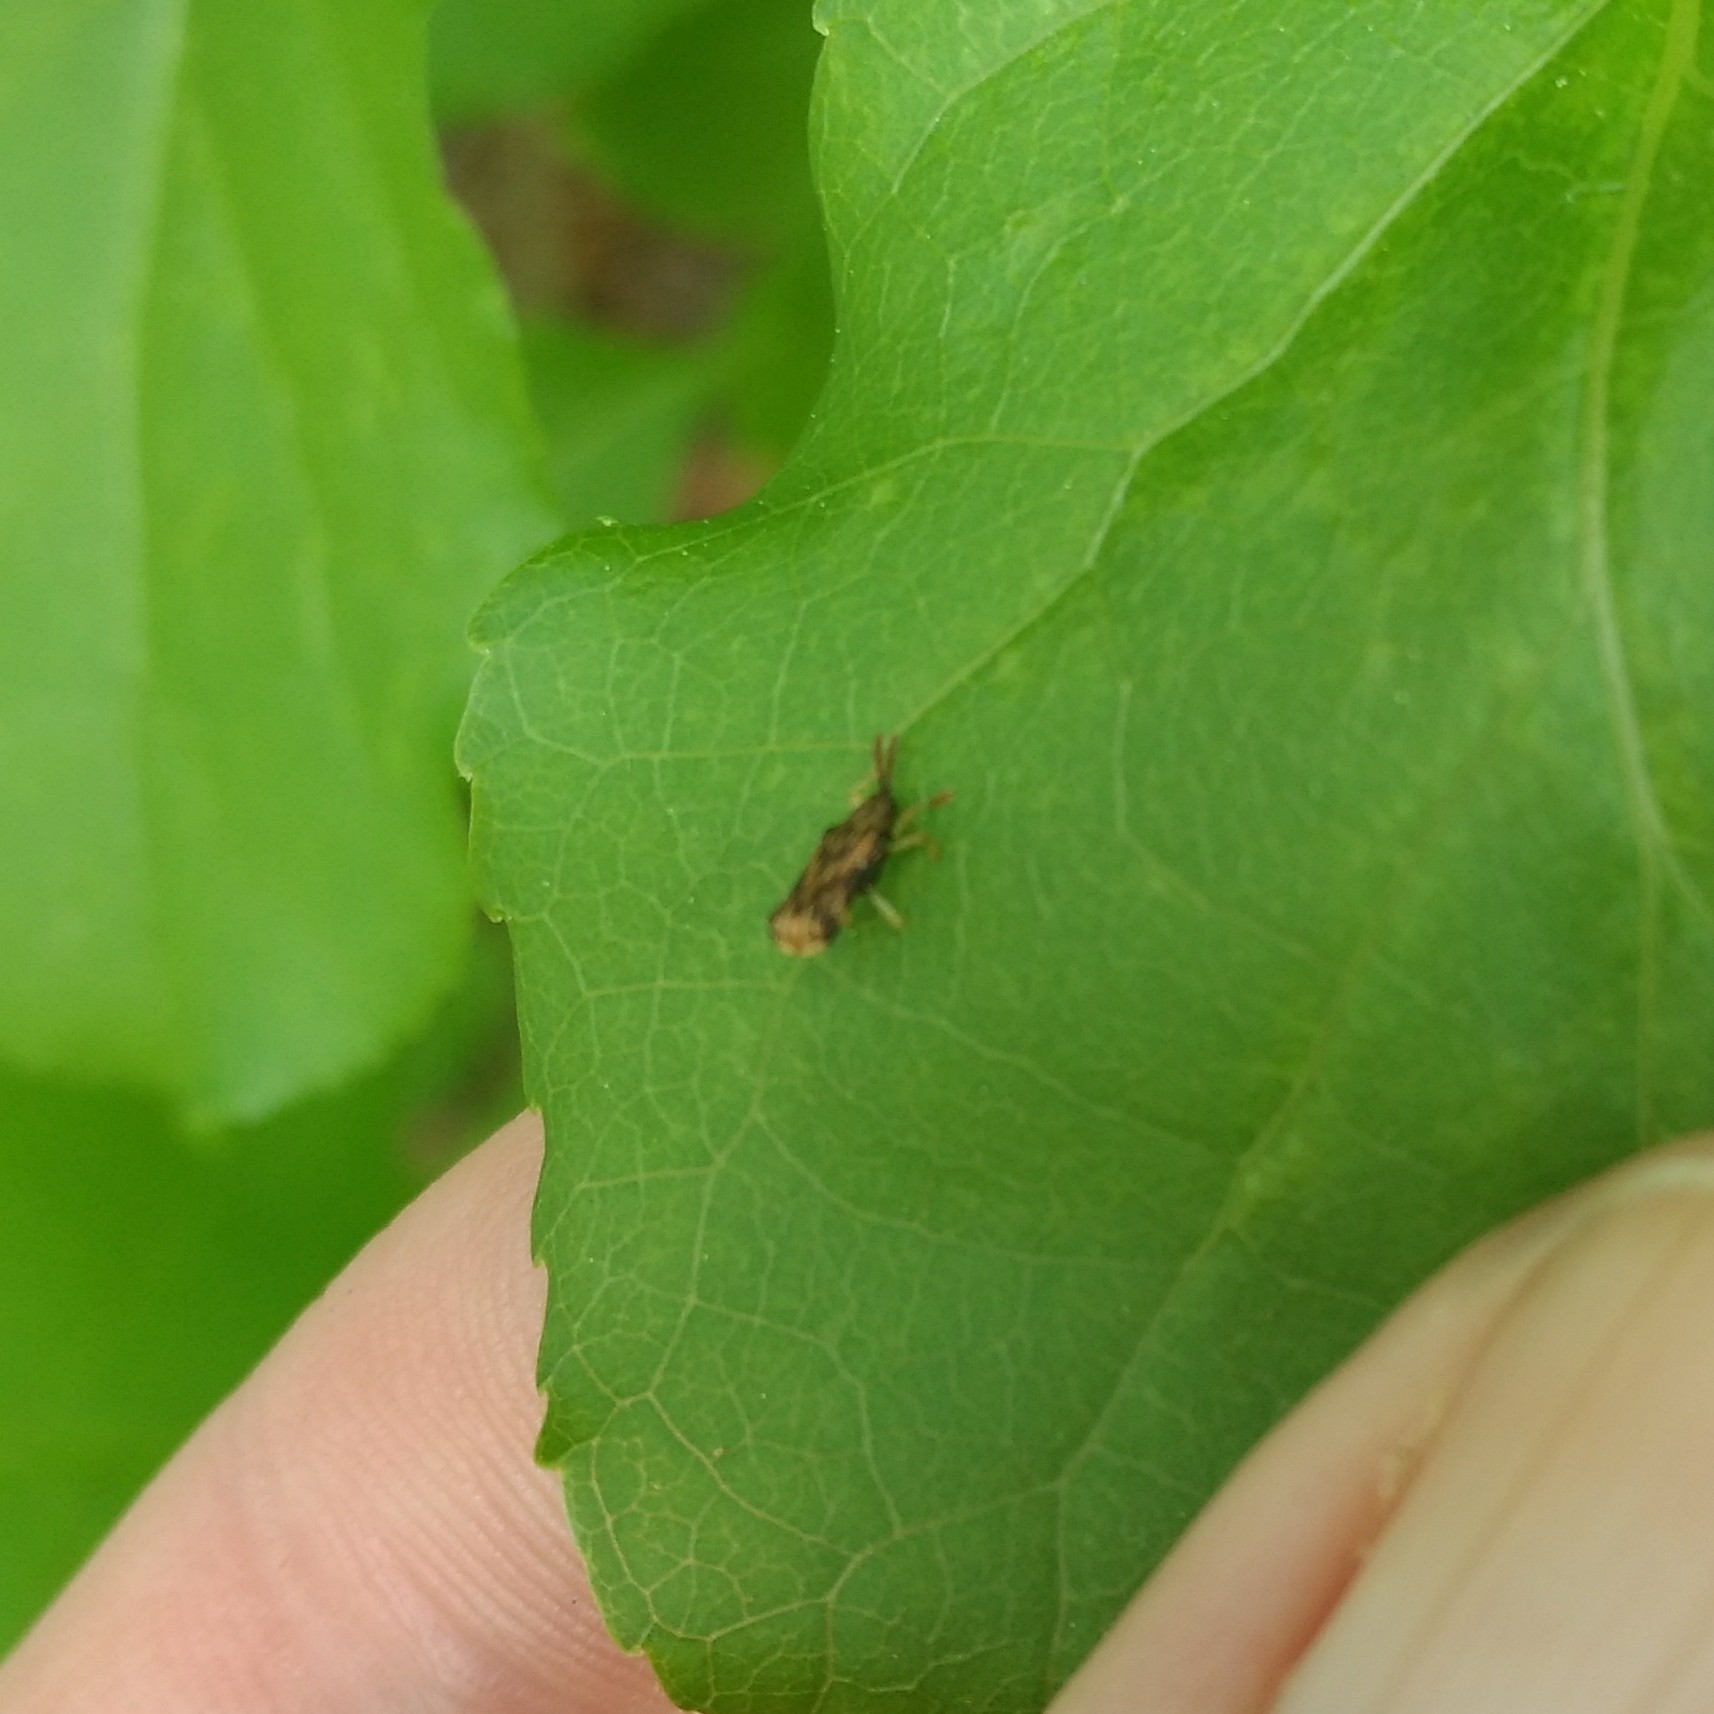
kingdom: Animalia
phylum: Arthropoda
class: Insecta
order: Coleoptera
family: Chrysomelidae
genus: Sumitrosis
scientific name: Sumitrosis rosea
